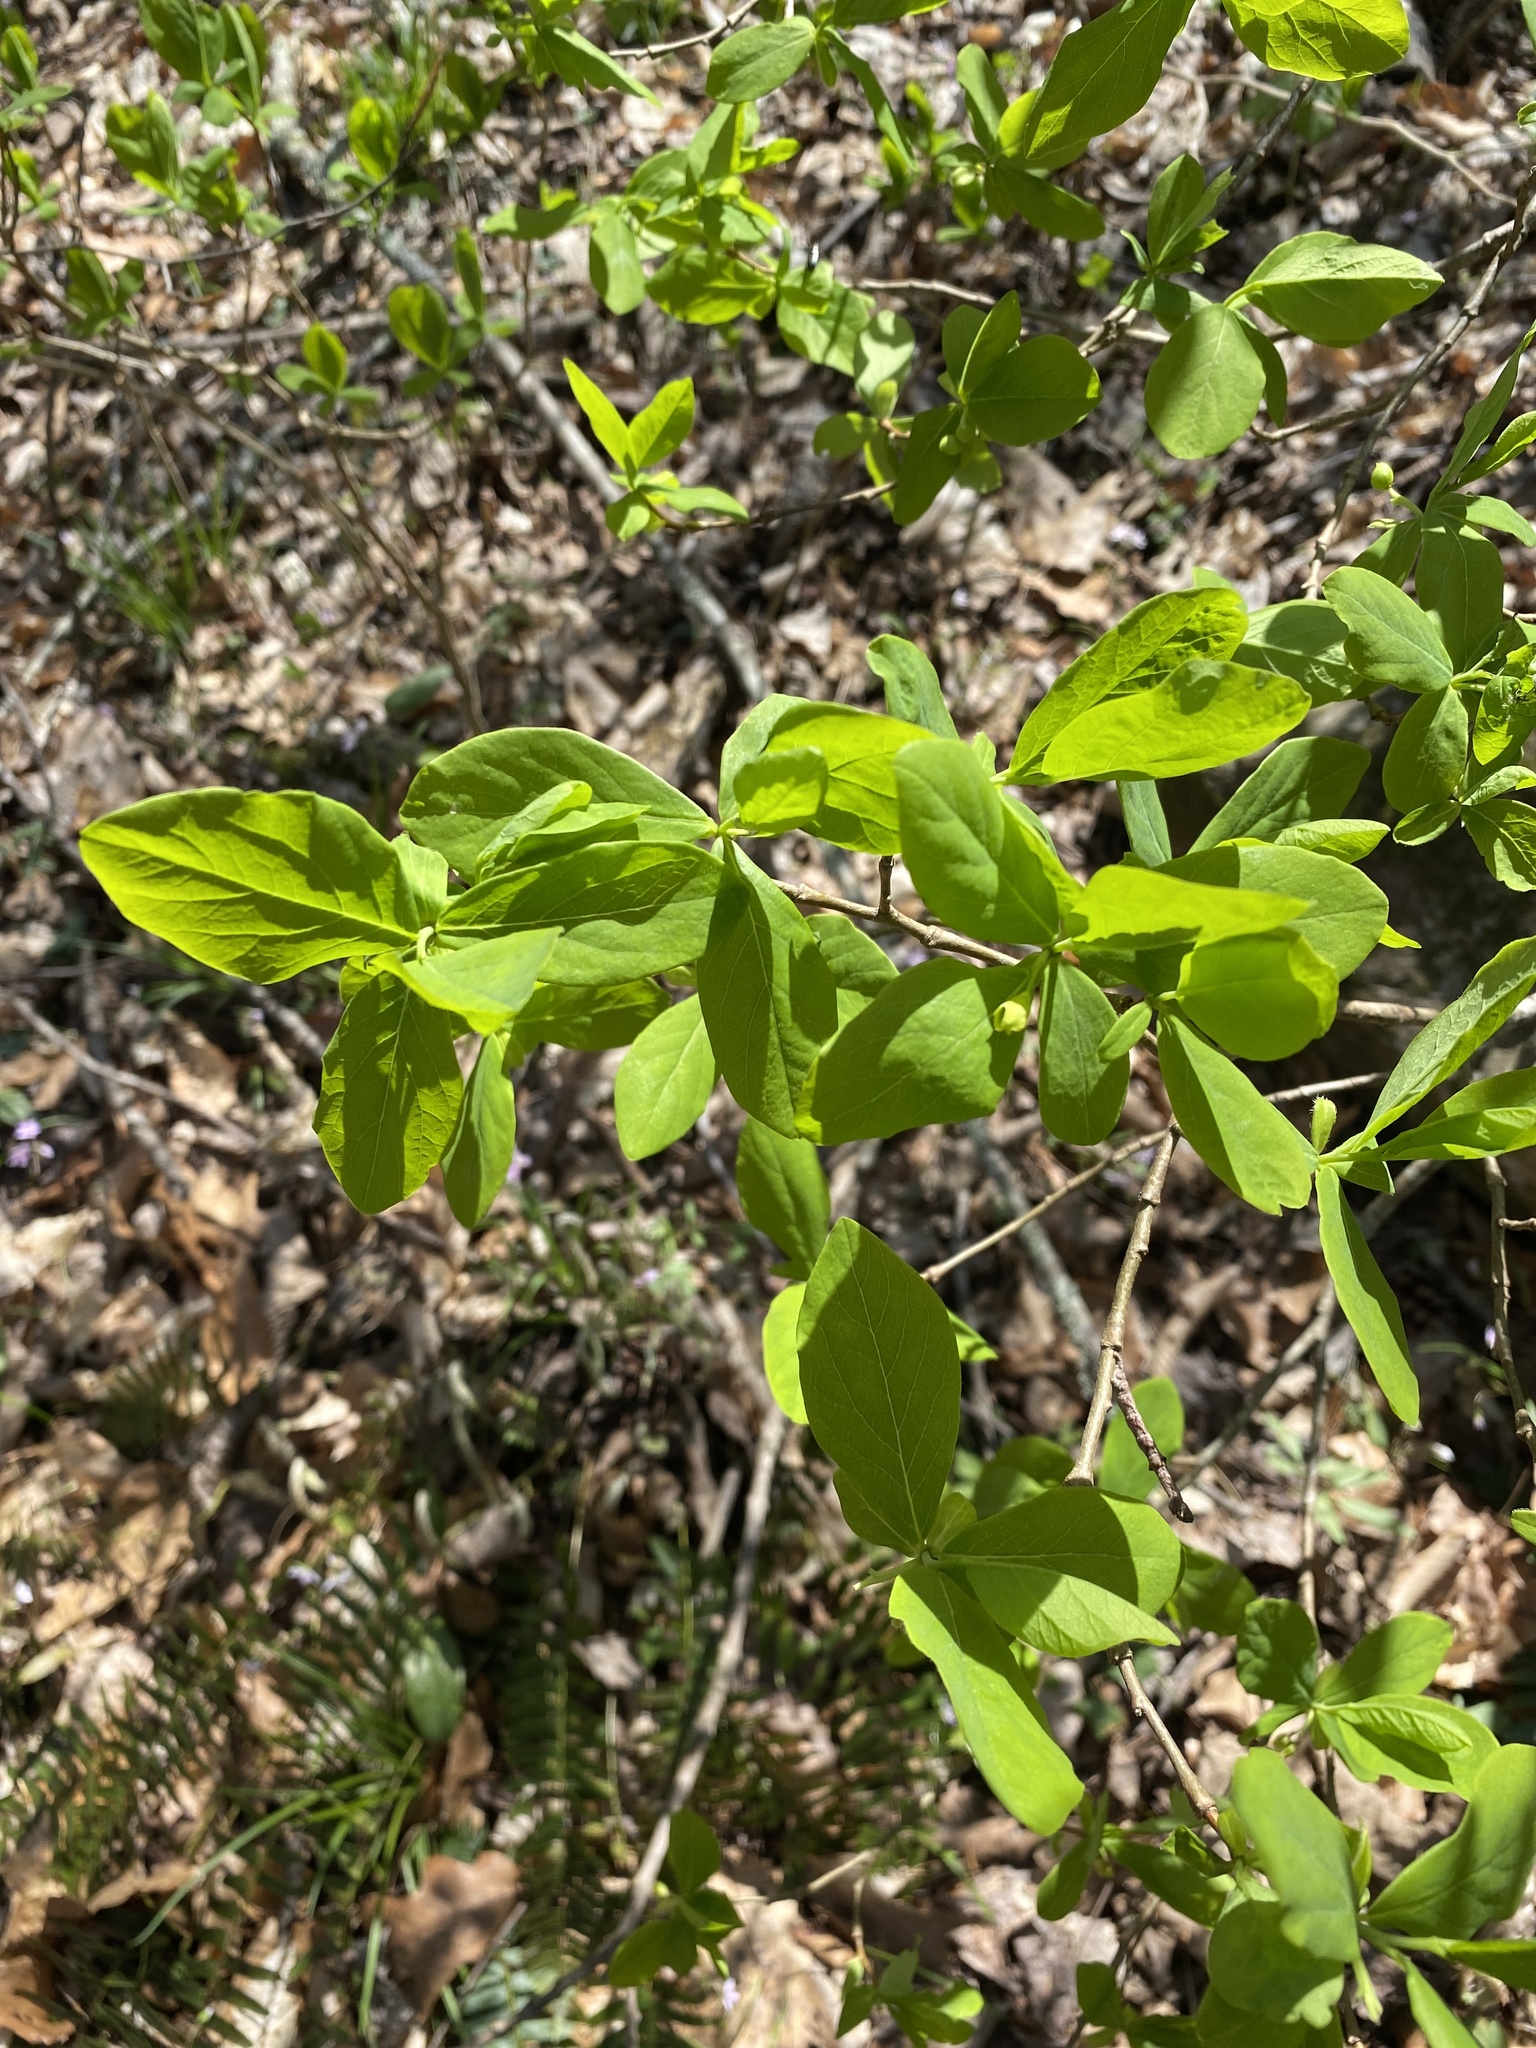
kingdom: Plantae
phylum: Tracheophyta
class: Magnoliopsida
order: Malvales
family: Thymelaeaceae
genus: Dirca
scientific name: Dirca palustris
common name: Leatherwood
